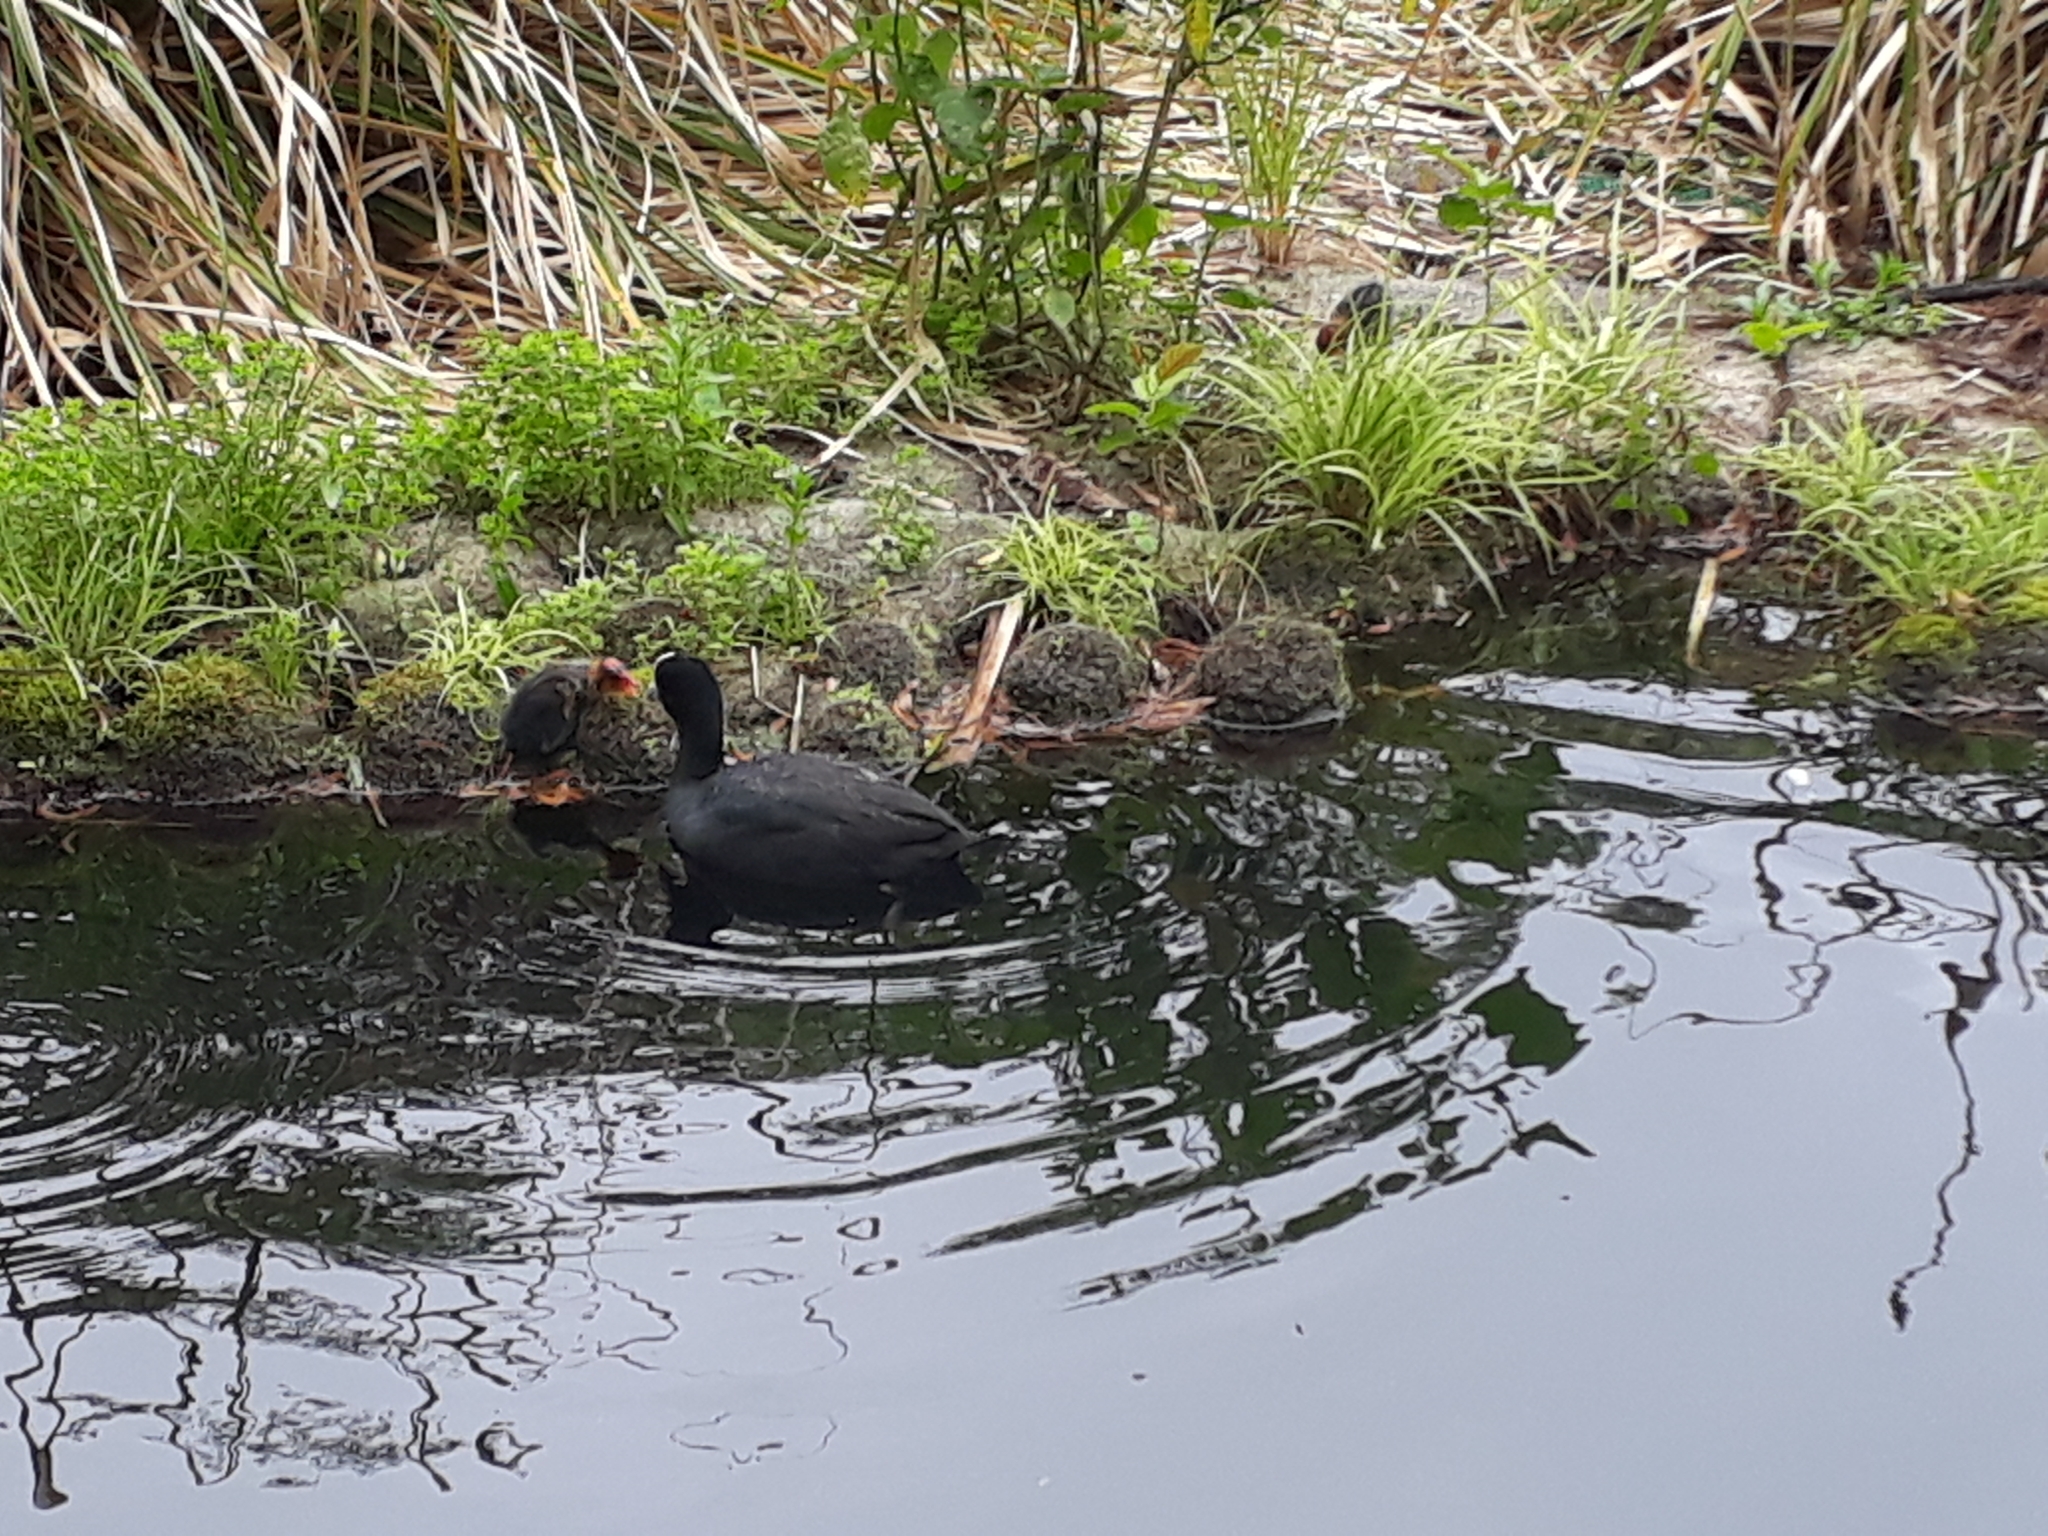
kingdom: Animalia
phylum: Chordata
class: Aves
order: Gruiformes
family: Rallidae
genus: Fulica
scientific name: Fulica atra
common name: Eurasian coot
